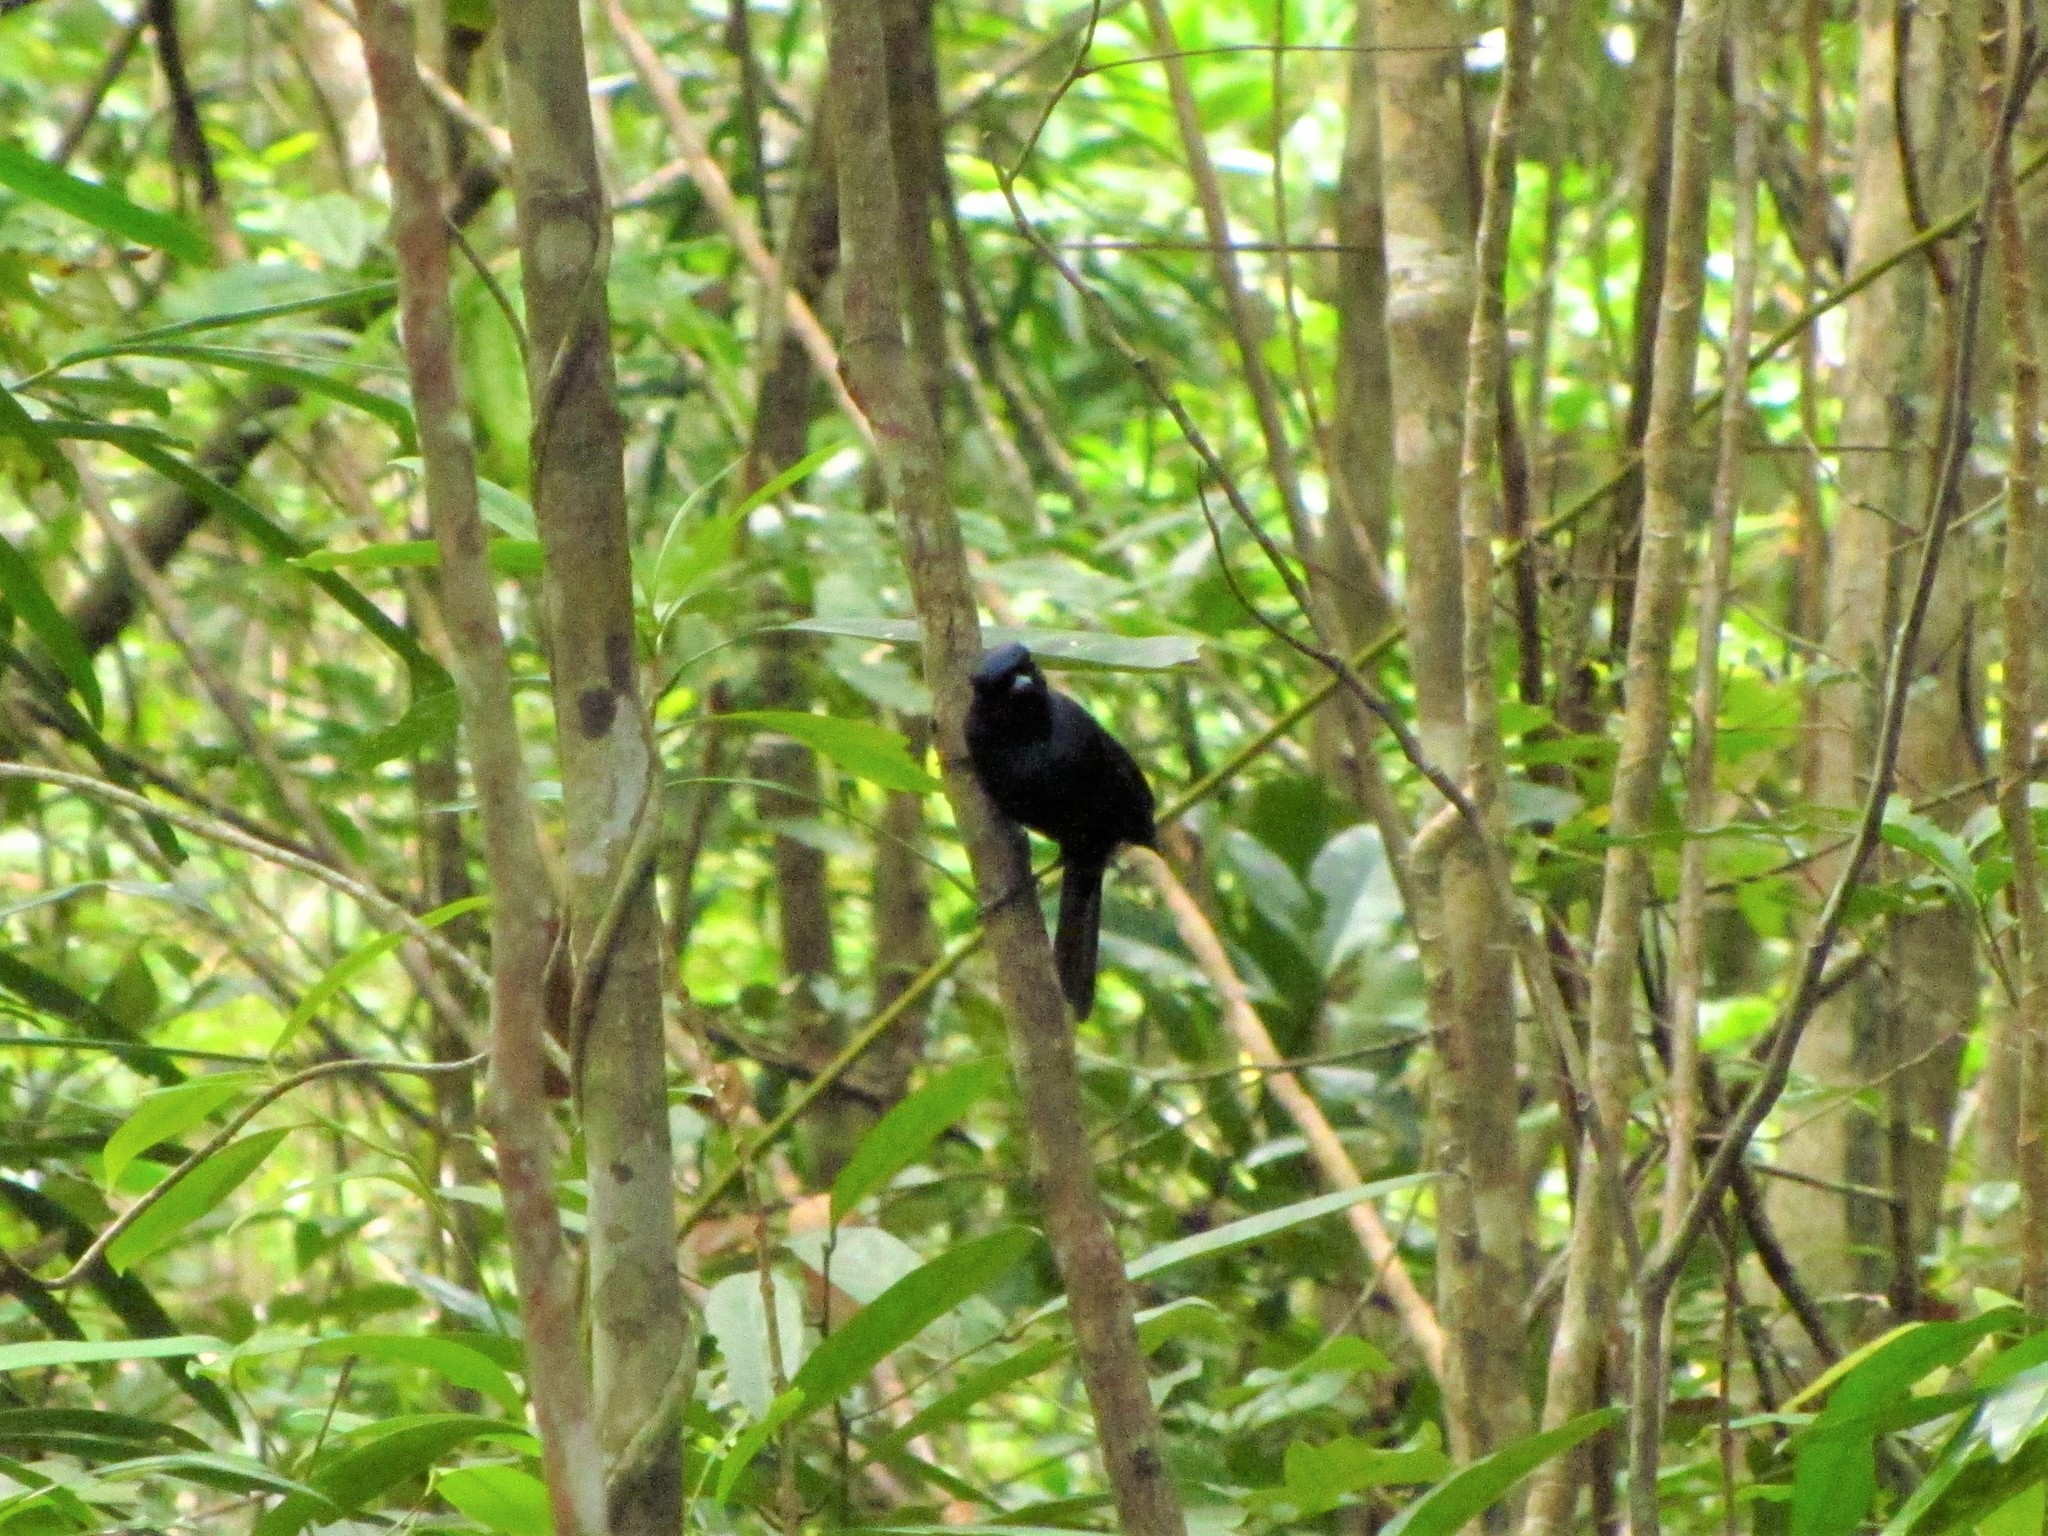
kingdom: Animalia
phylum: Chordata
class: Aves
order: Passeriformes
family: Monarchidae
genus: Myiagra
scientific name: Myiagra alecto
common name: Shining flycatcher
